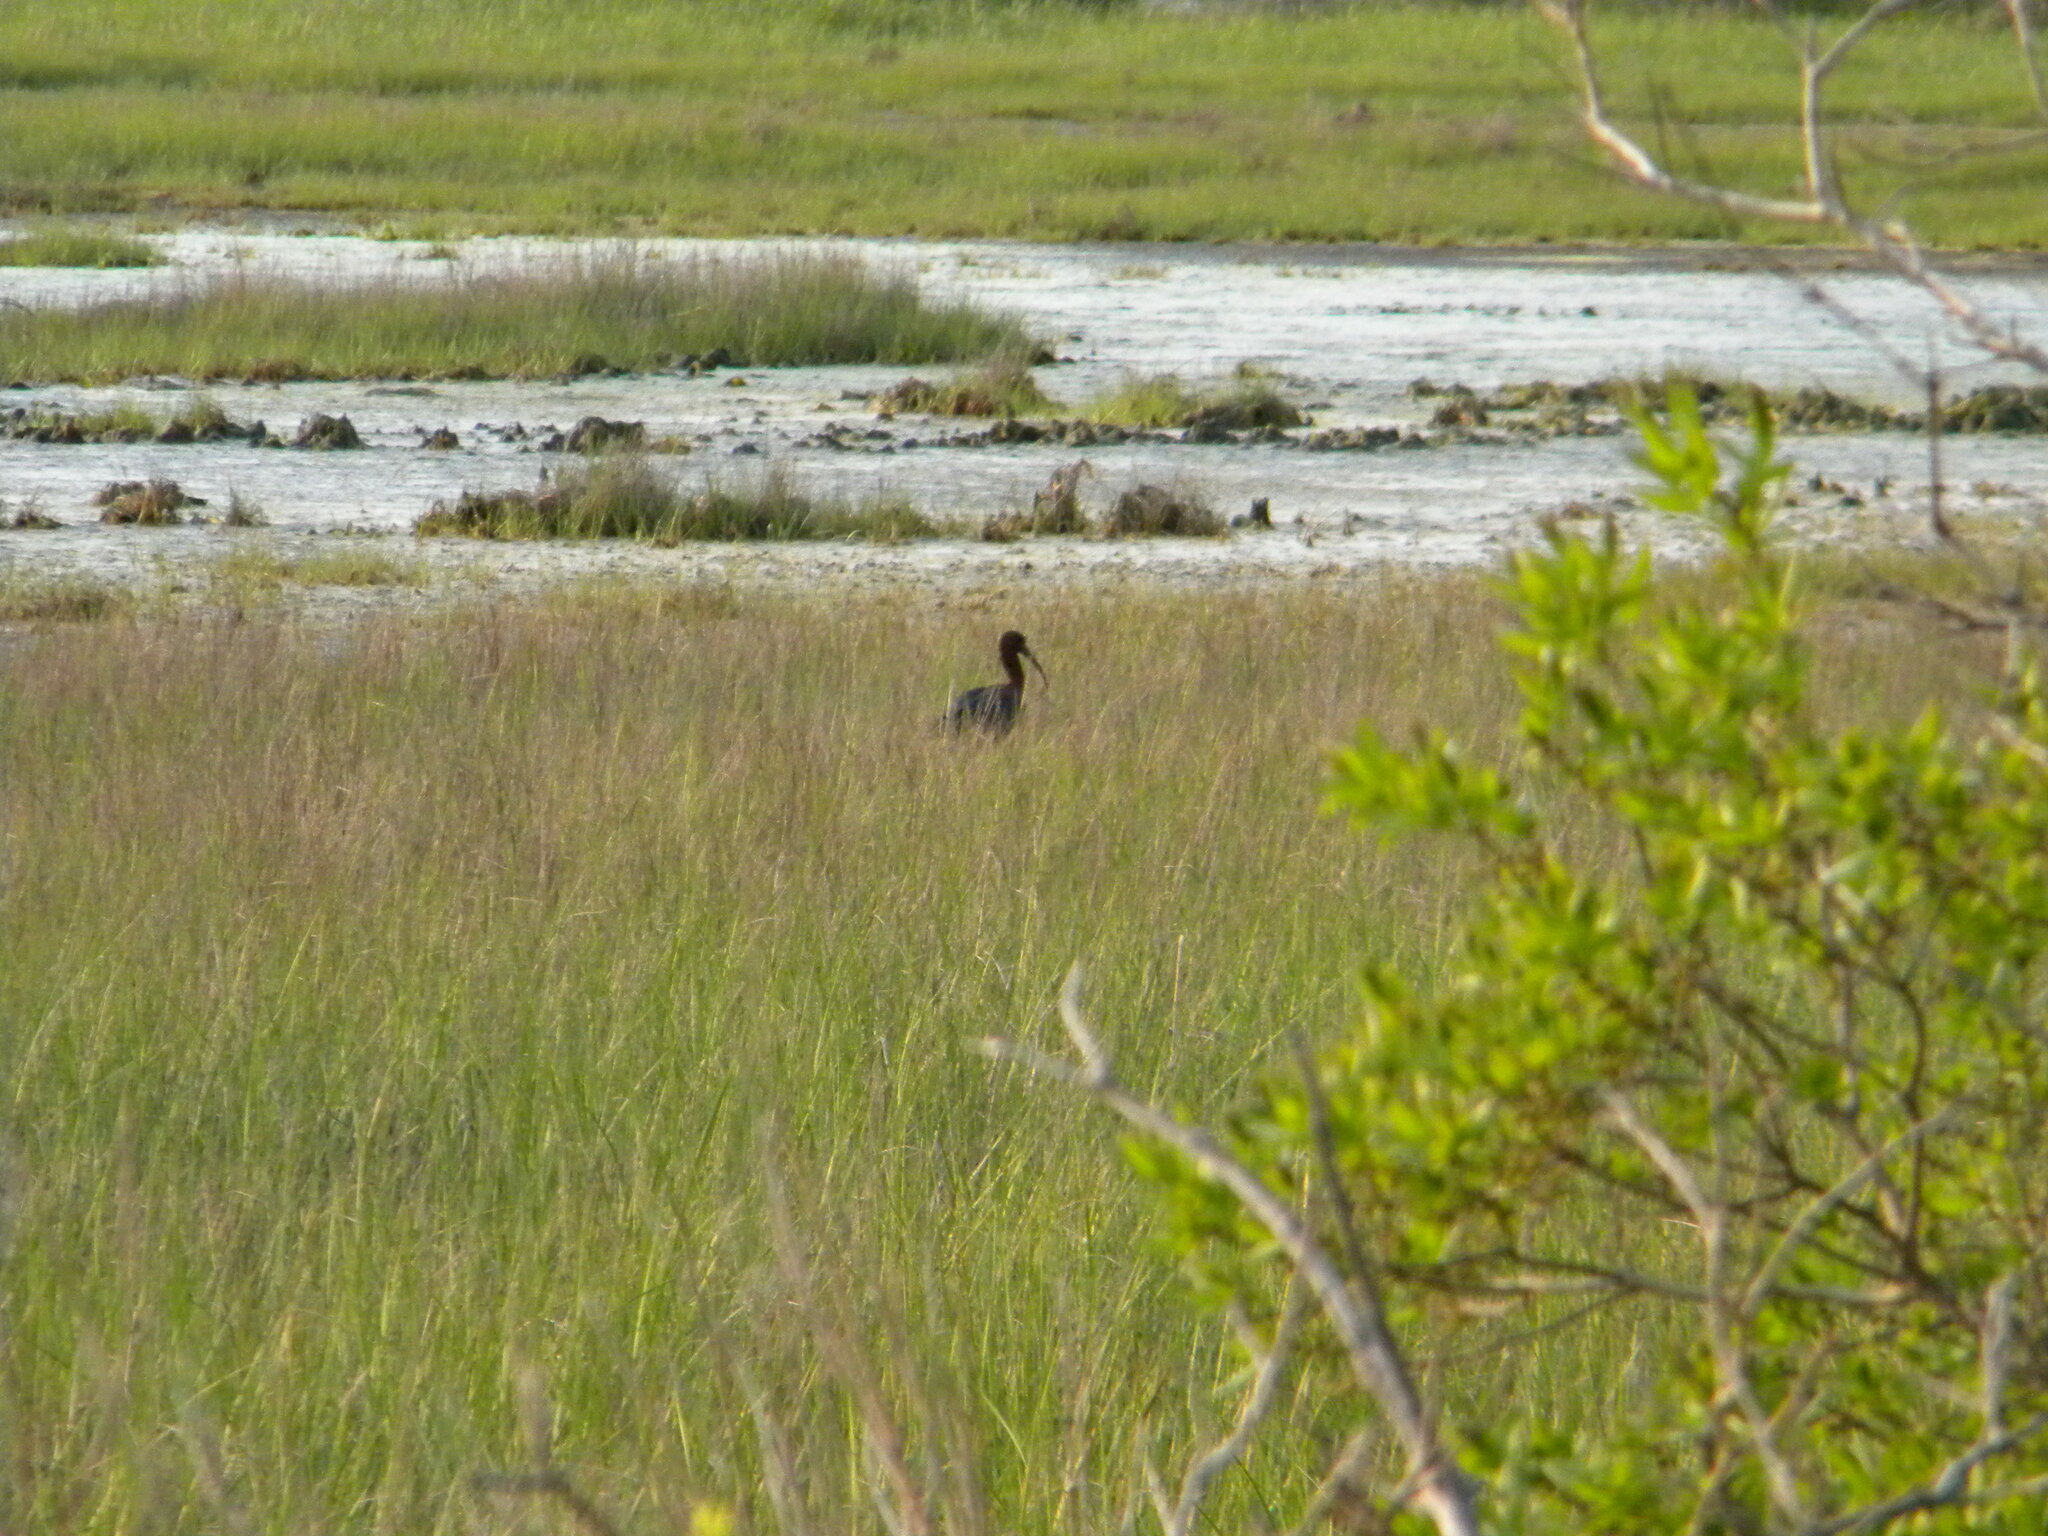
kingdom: Animalia
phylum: Chordata
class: Aves
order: Pelecaniformes
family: Threskiornithidae
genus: Plegadis
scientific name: Plegadis falcinellus
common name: Glossy ibis
